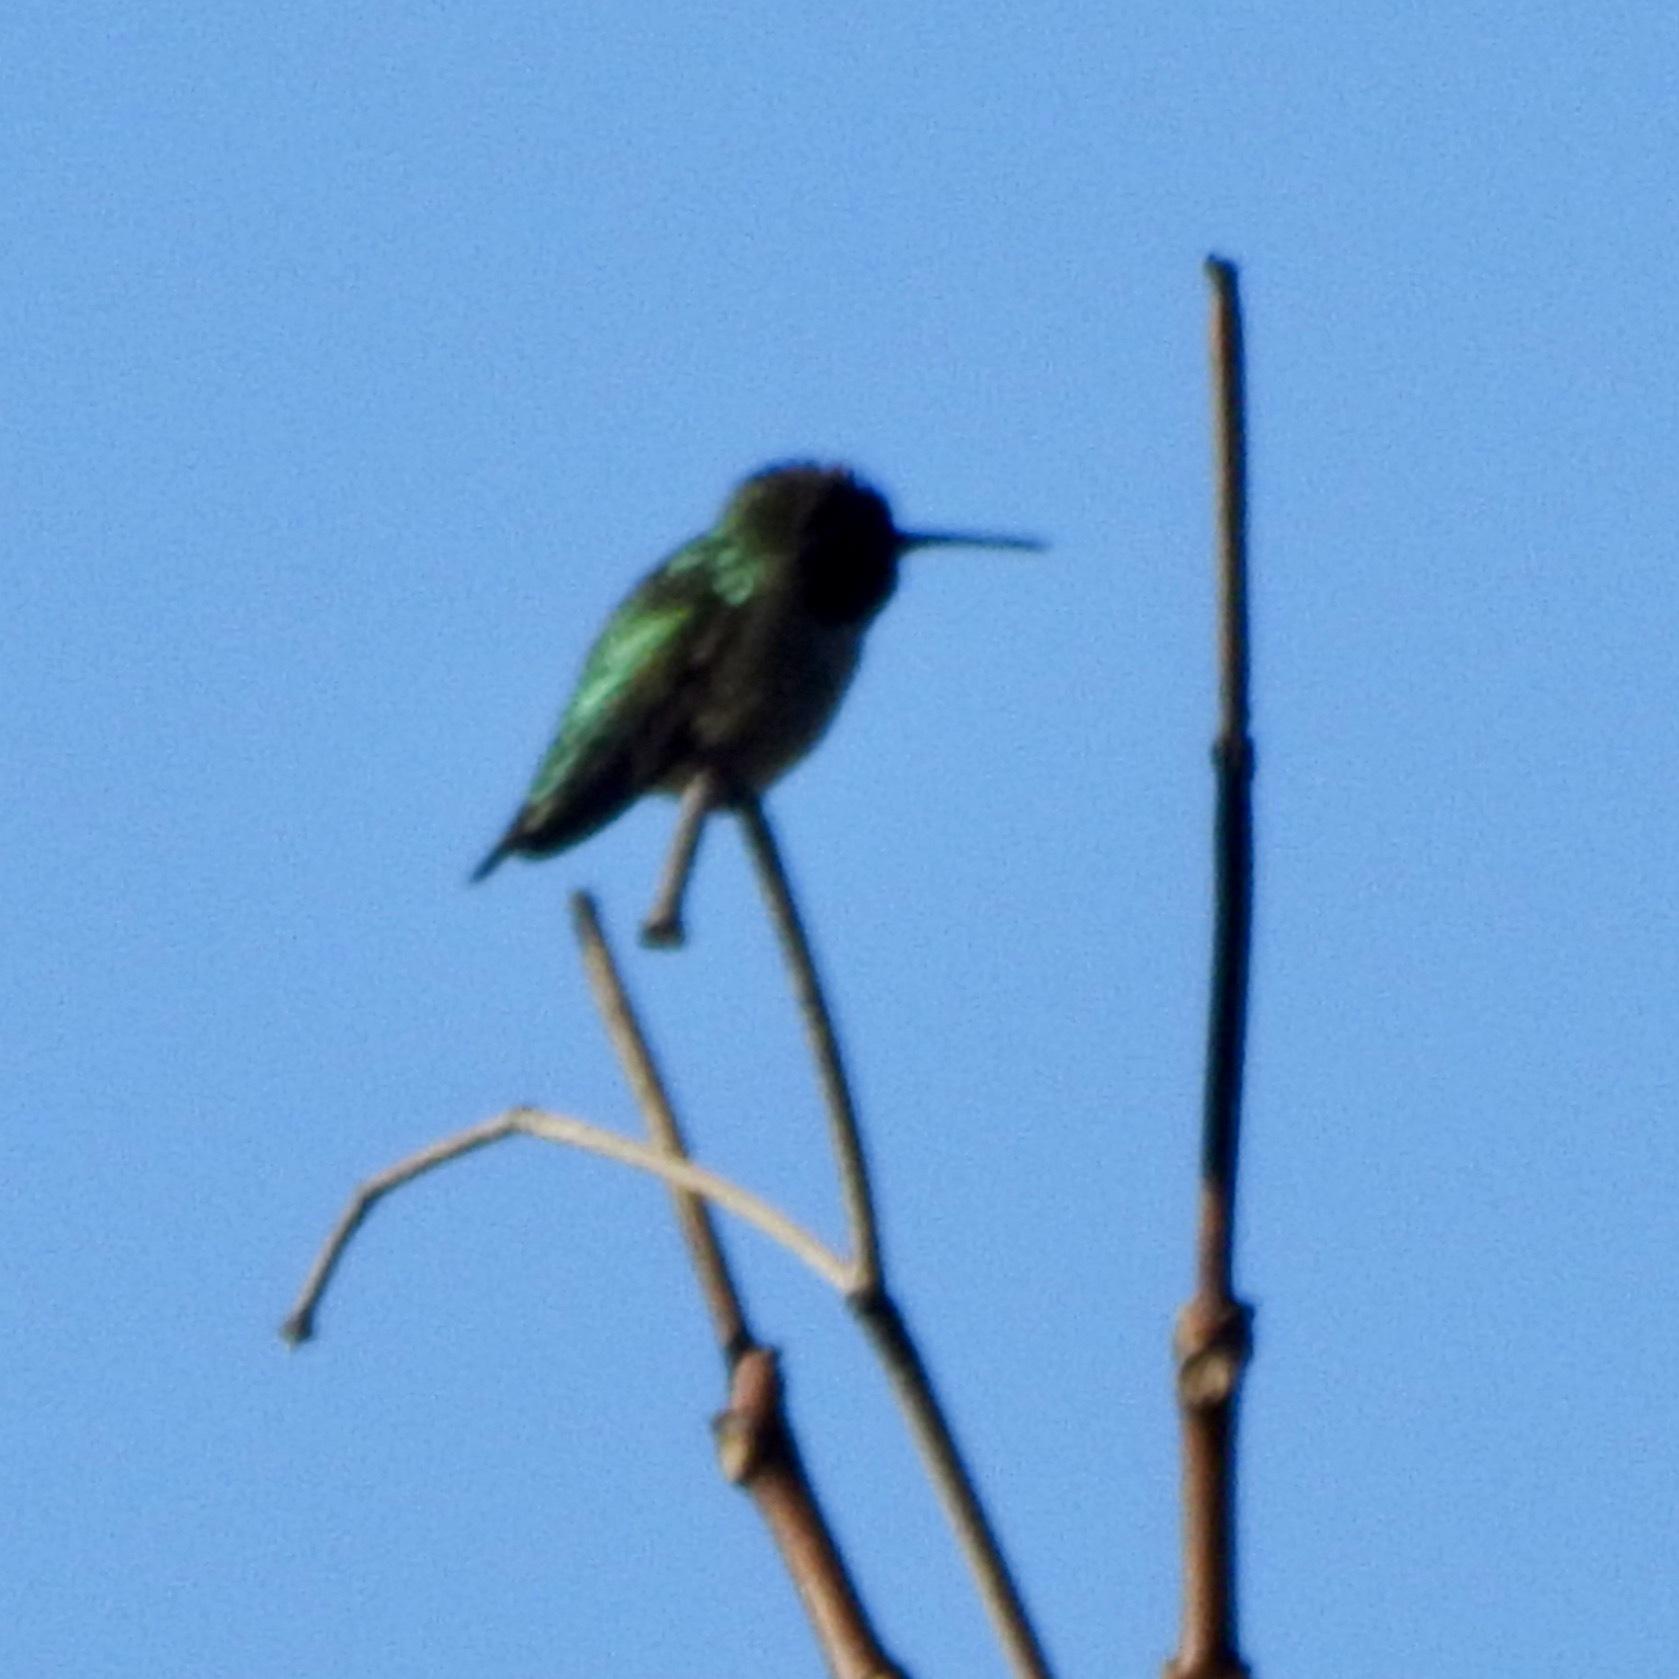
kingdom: Animalia
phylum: Chordata
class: Aves
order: Apodiformes
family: Trochilidae
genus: Calypte
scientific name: Calypte anna
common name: Anna's hummingbird
